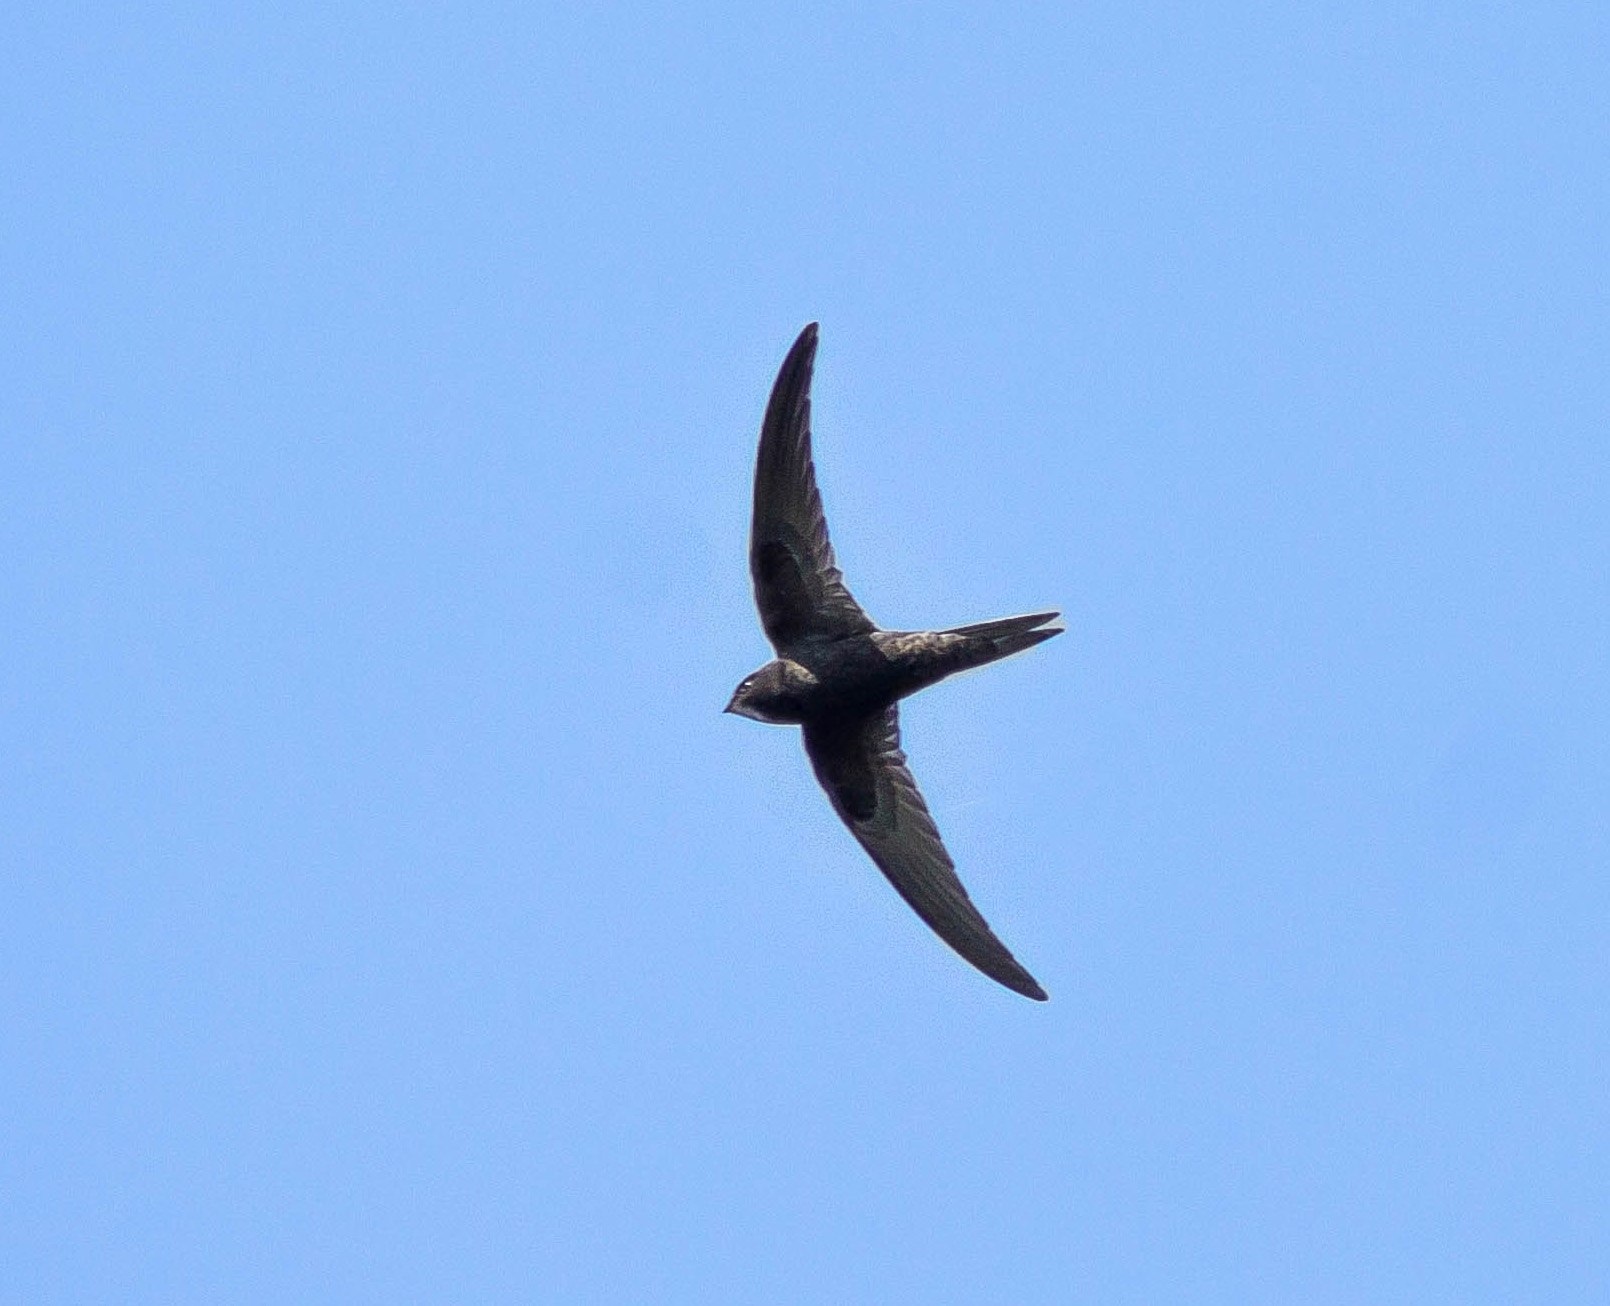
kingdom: Animalia
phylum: Chordata
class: Aves
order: Apodiformes
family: Apodidae
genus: Apus
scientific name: Apus apus
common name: Common swift
